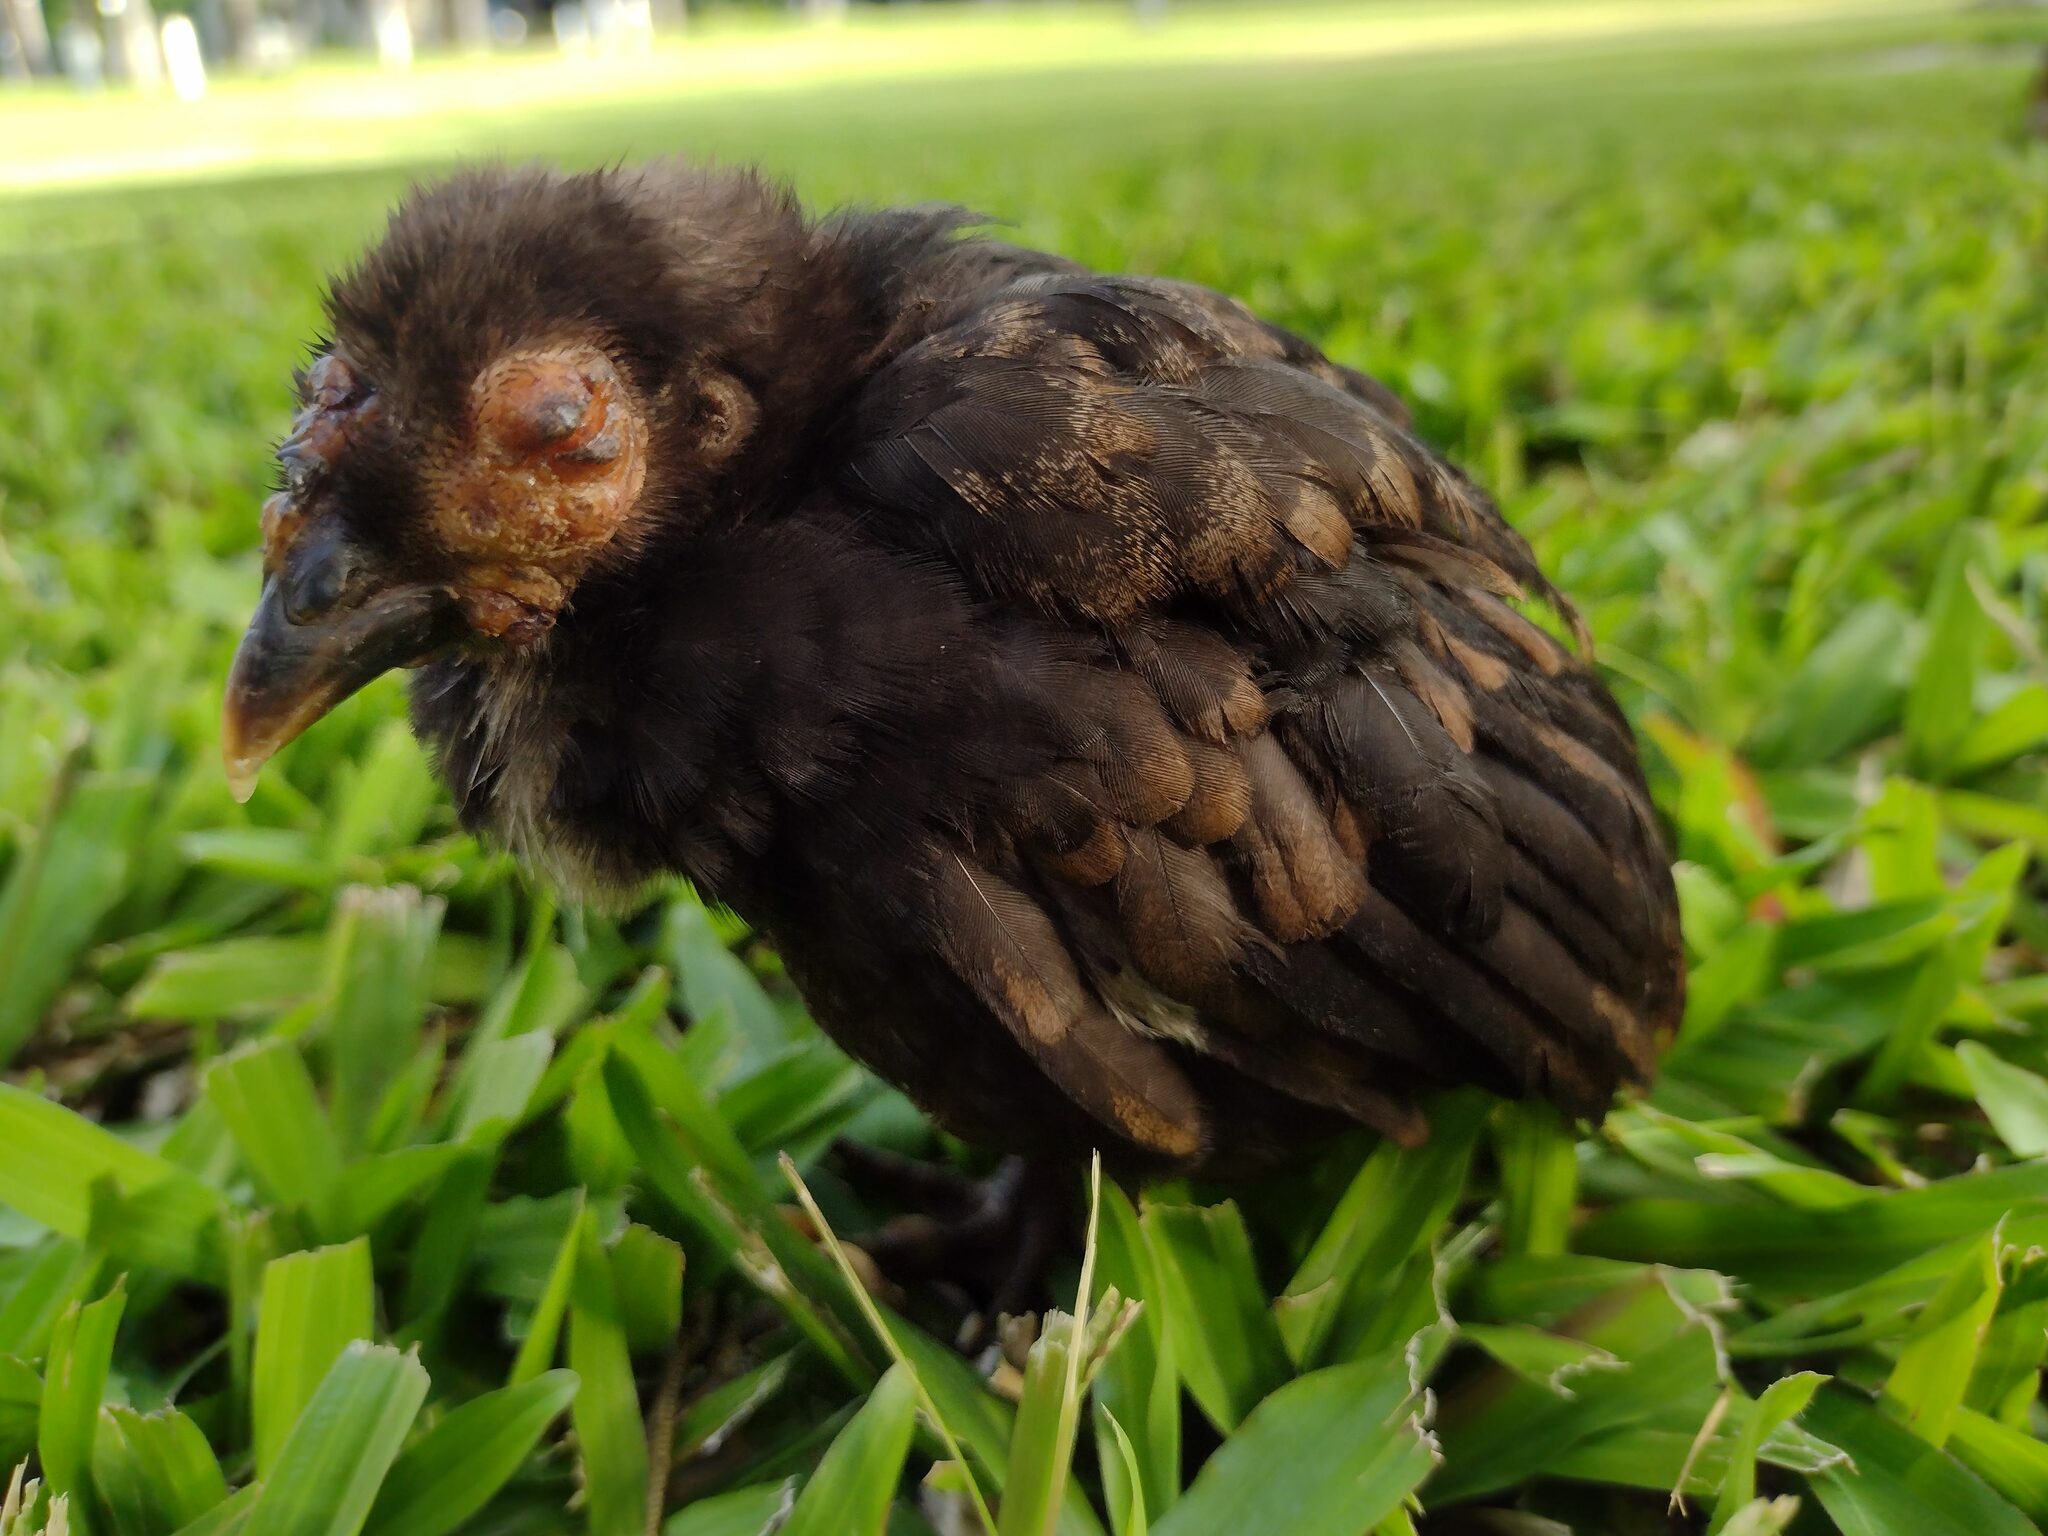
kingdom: Animalia
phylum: Chordata
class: Aves
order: Galliformes
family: Phasianidae
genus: Gallus
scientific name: Gallus gallus
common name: Red junglefowl
